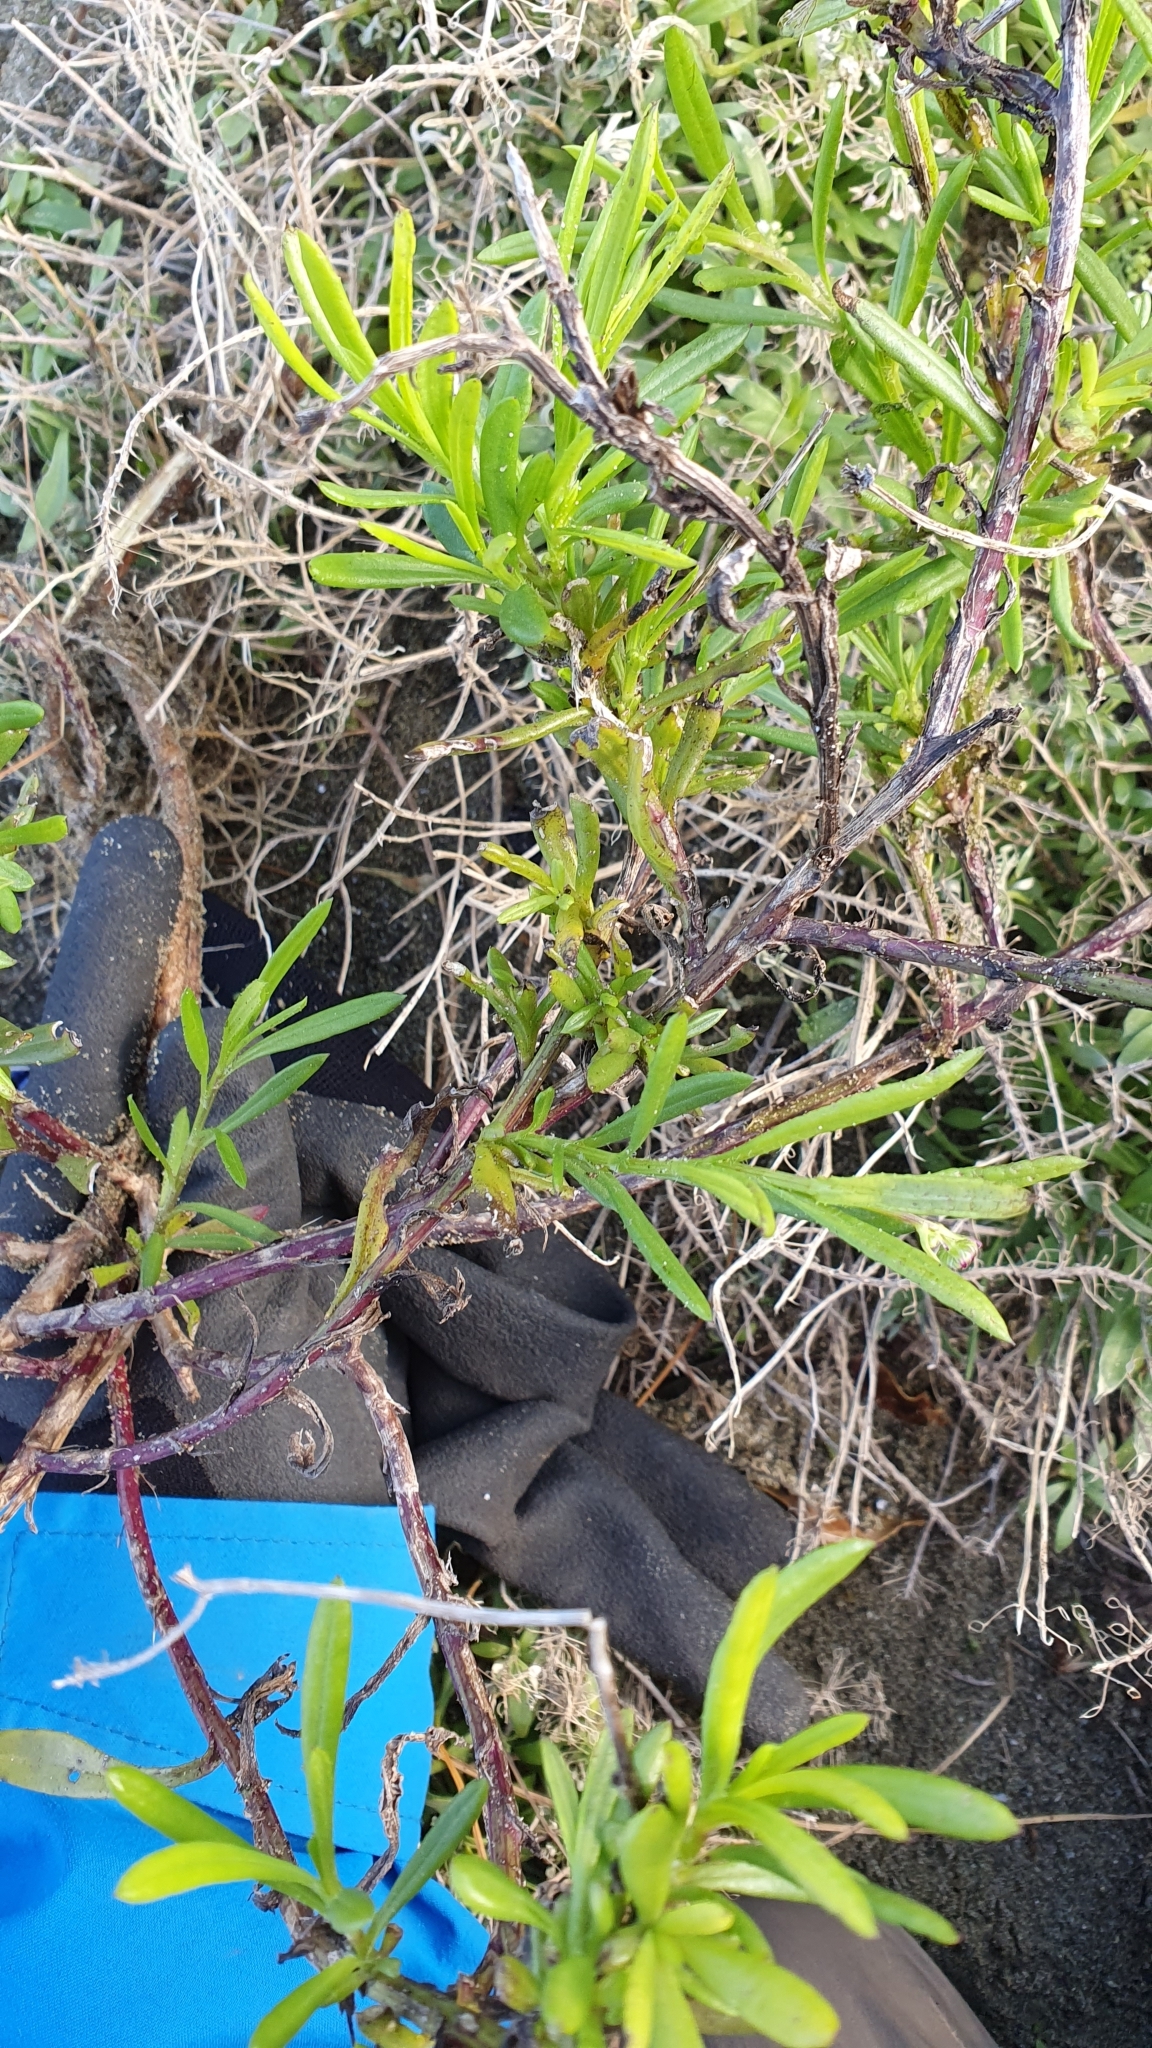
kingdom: Plantae
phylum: Tracheophyta
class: Magnoliopsida
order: Asterales
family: Asteraceae
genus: Senecio
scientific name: Senecio skirrhodon
